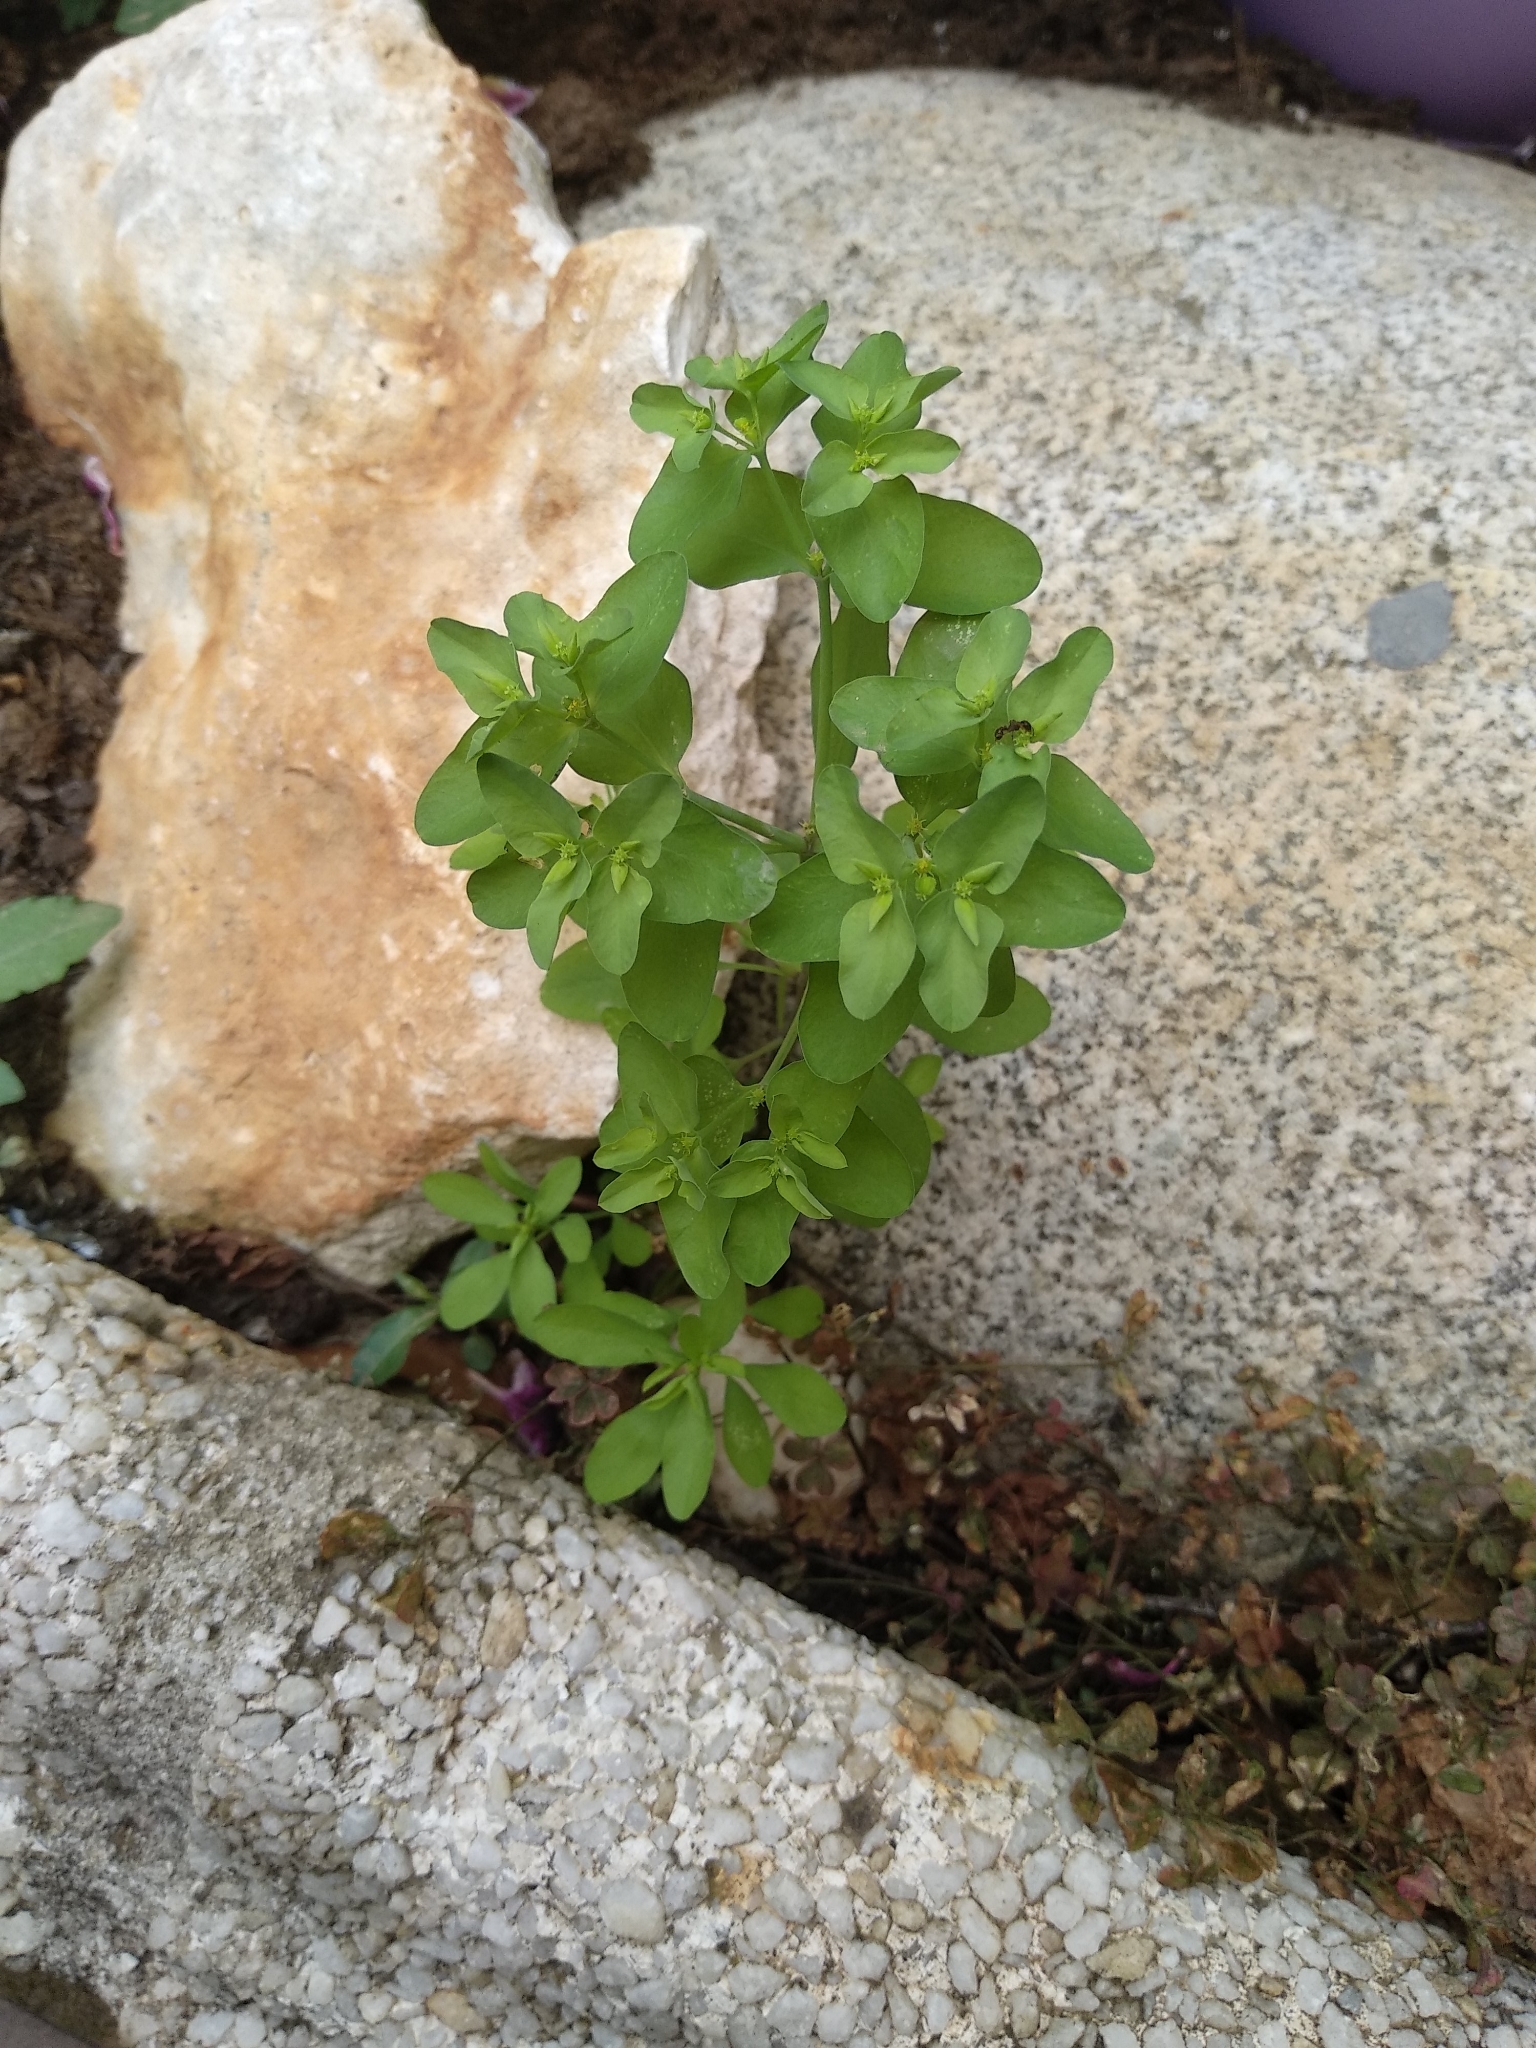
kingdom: Plantae
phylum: Tracheophyta
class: Magnoliopsida
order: Malpighiales
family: Euphorbiaceae
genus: Euphorbia
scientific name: Euphorbia peplus
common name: Petty spurge
